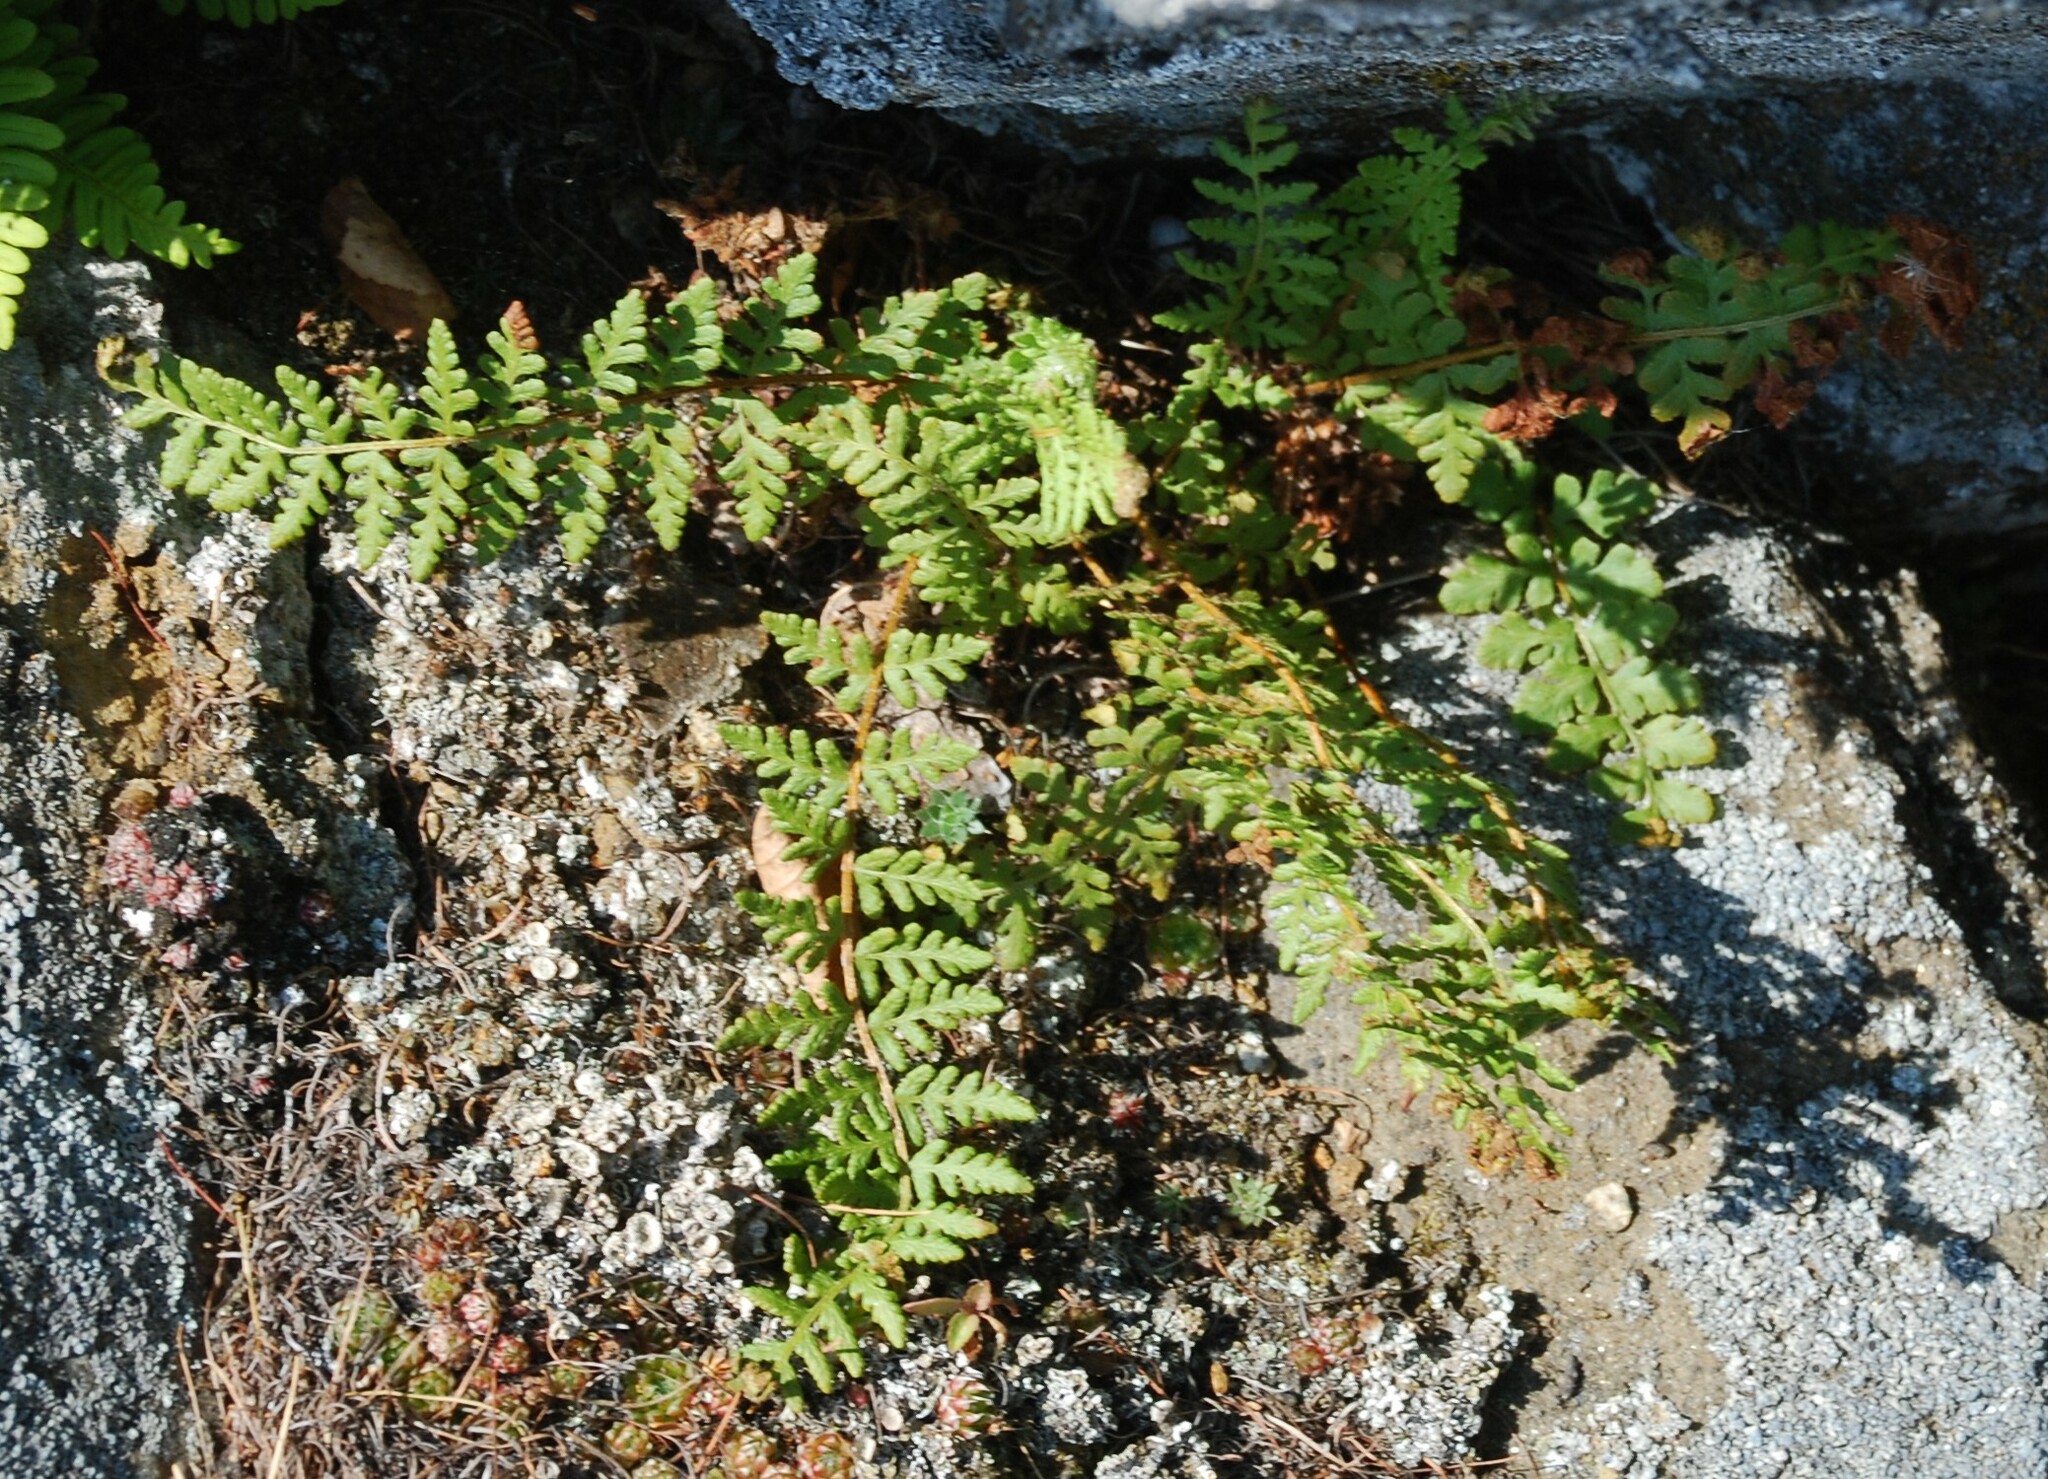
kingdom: Plantae
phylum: Tracheophyta
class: Polypodiopsida
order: Polypodiales
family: Woodsiaceae
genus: Woodsia
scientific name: Woodsia ilvensis
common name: Fragrant woodsia
